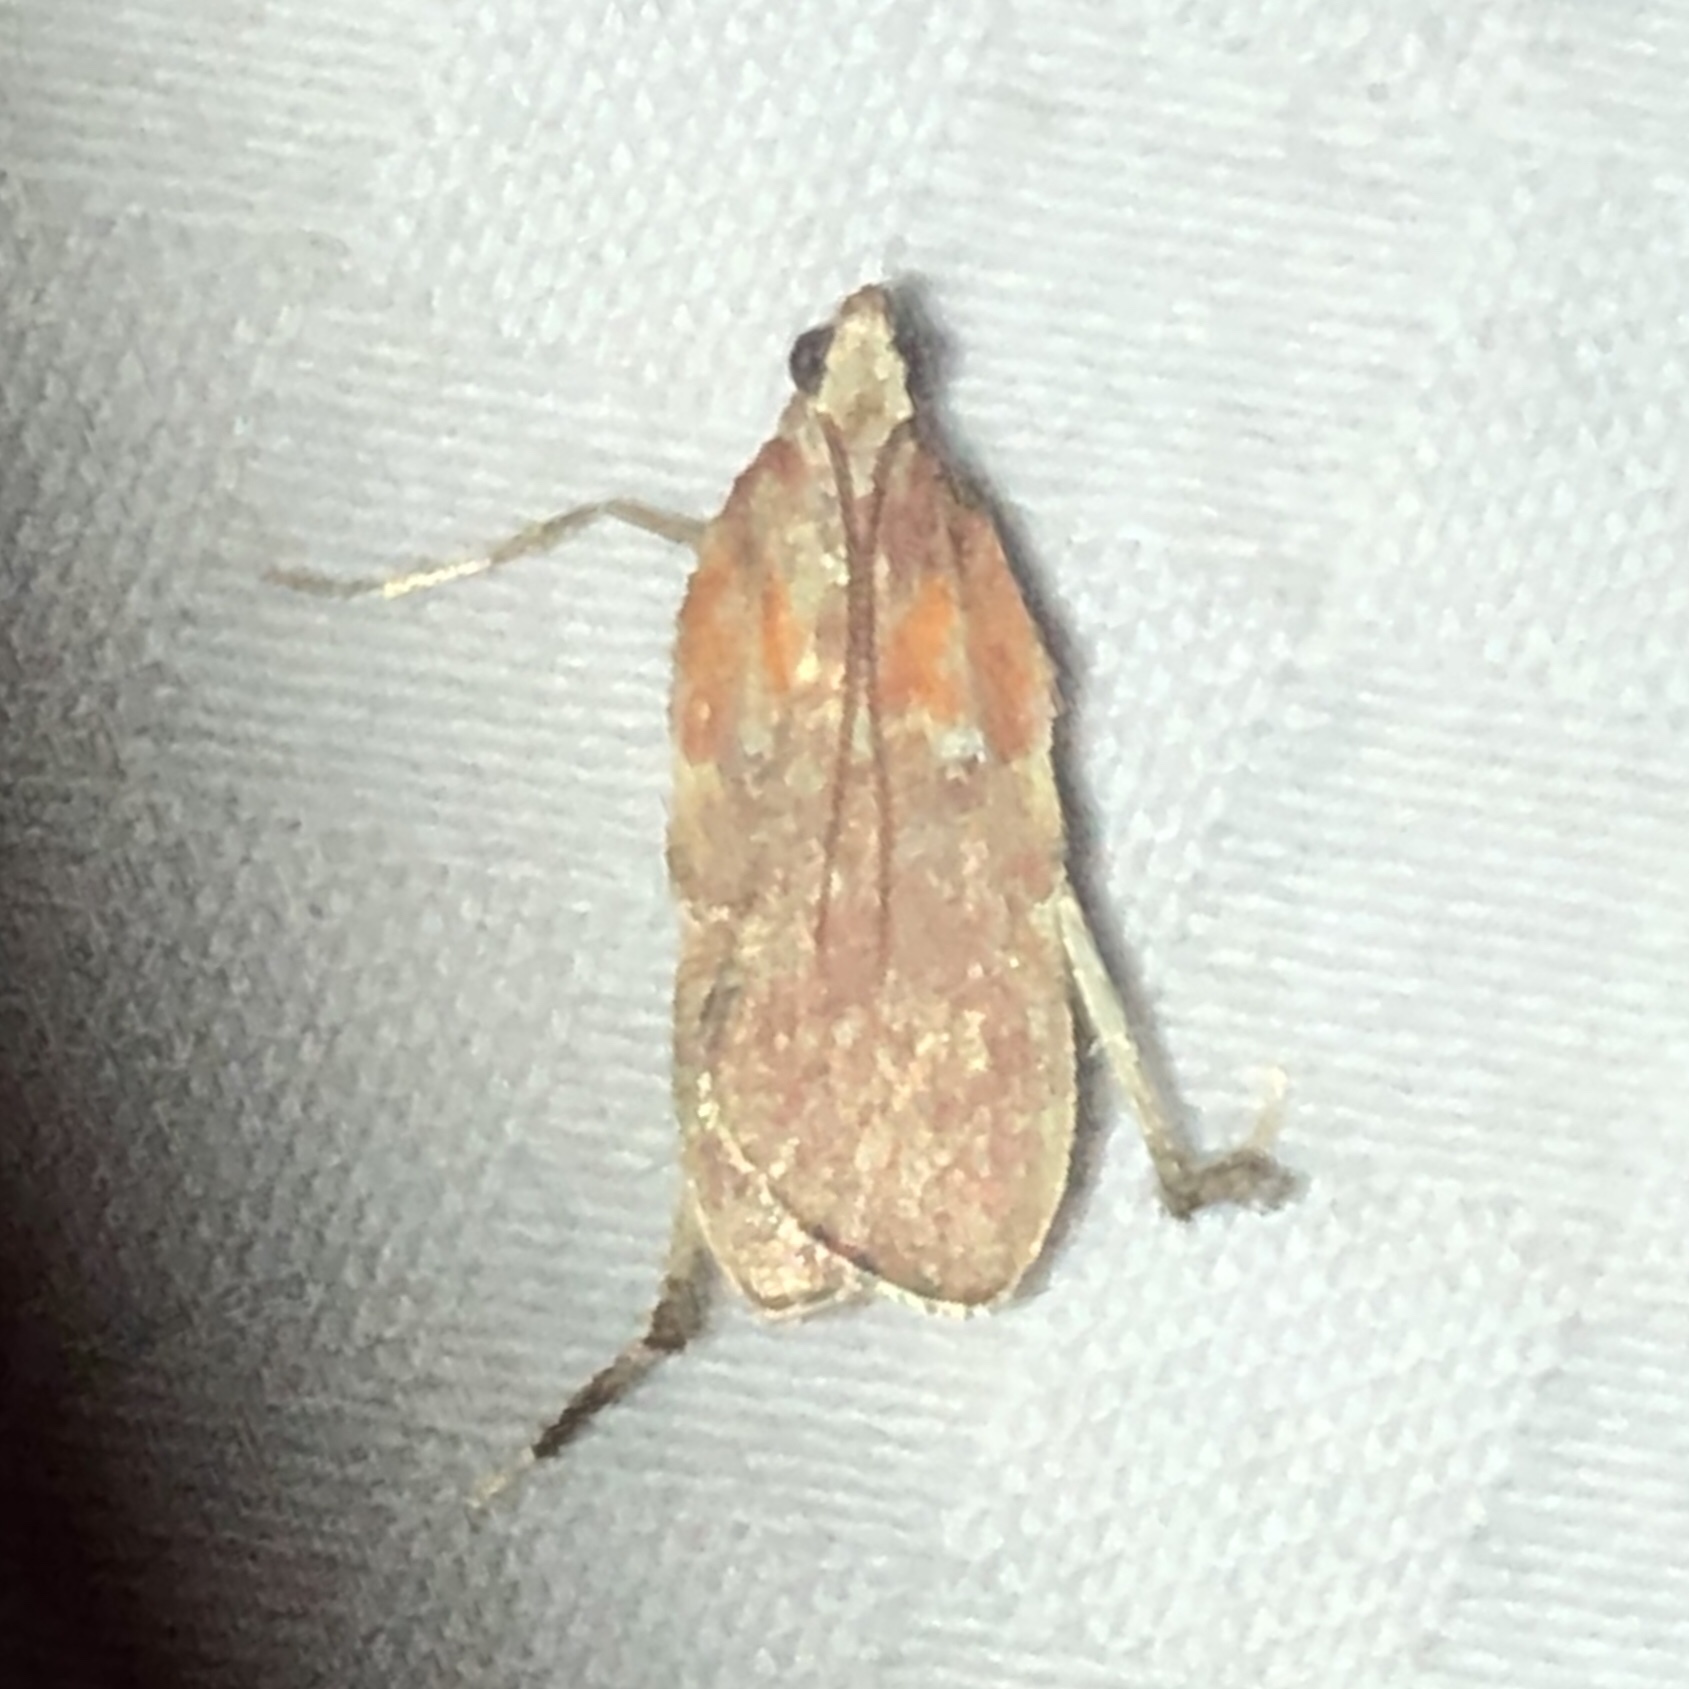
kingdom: Animalia
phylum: Arthropoda
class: Insecta
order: Lepidoptera
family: Pyralidae
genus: Galasa
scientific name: Galasa nigrinodis
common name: Boxwood leaftier moth
